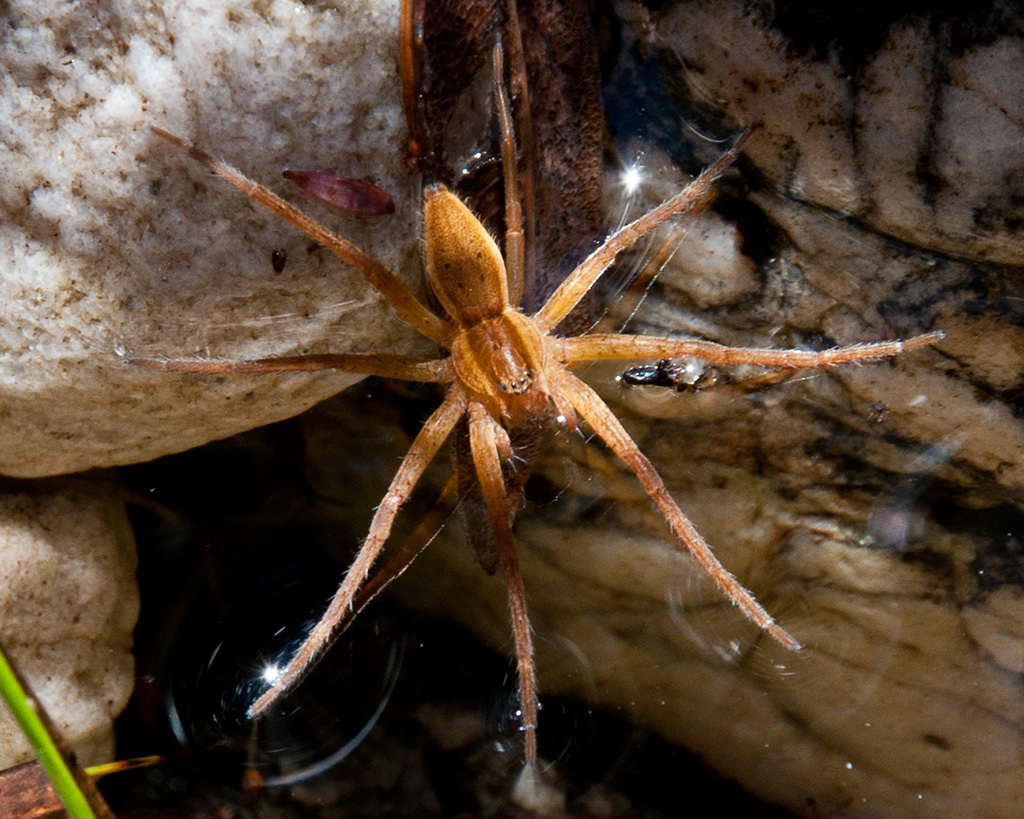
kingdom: Animalia
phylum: Arthropoda
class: Arachnida
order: Araneae
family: Pisauridae
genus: Nilus
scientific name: Nilus curtus
